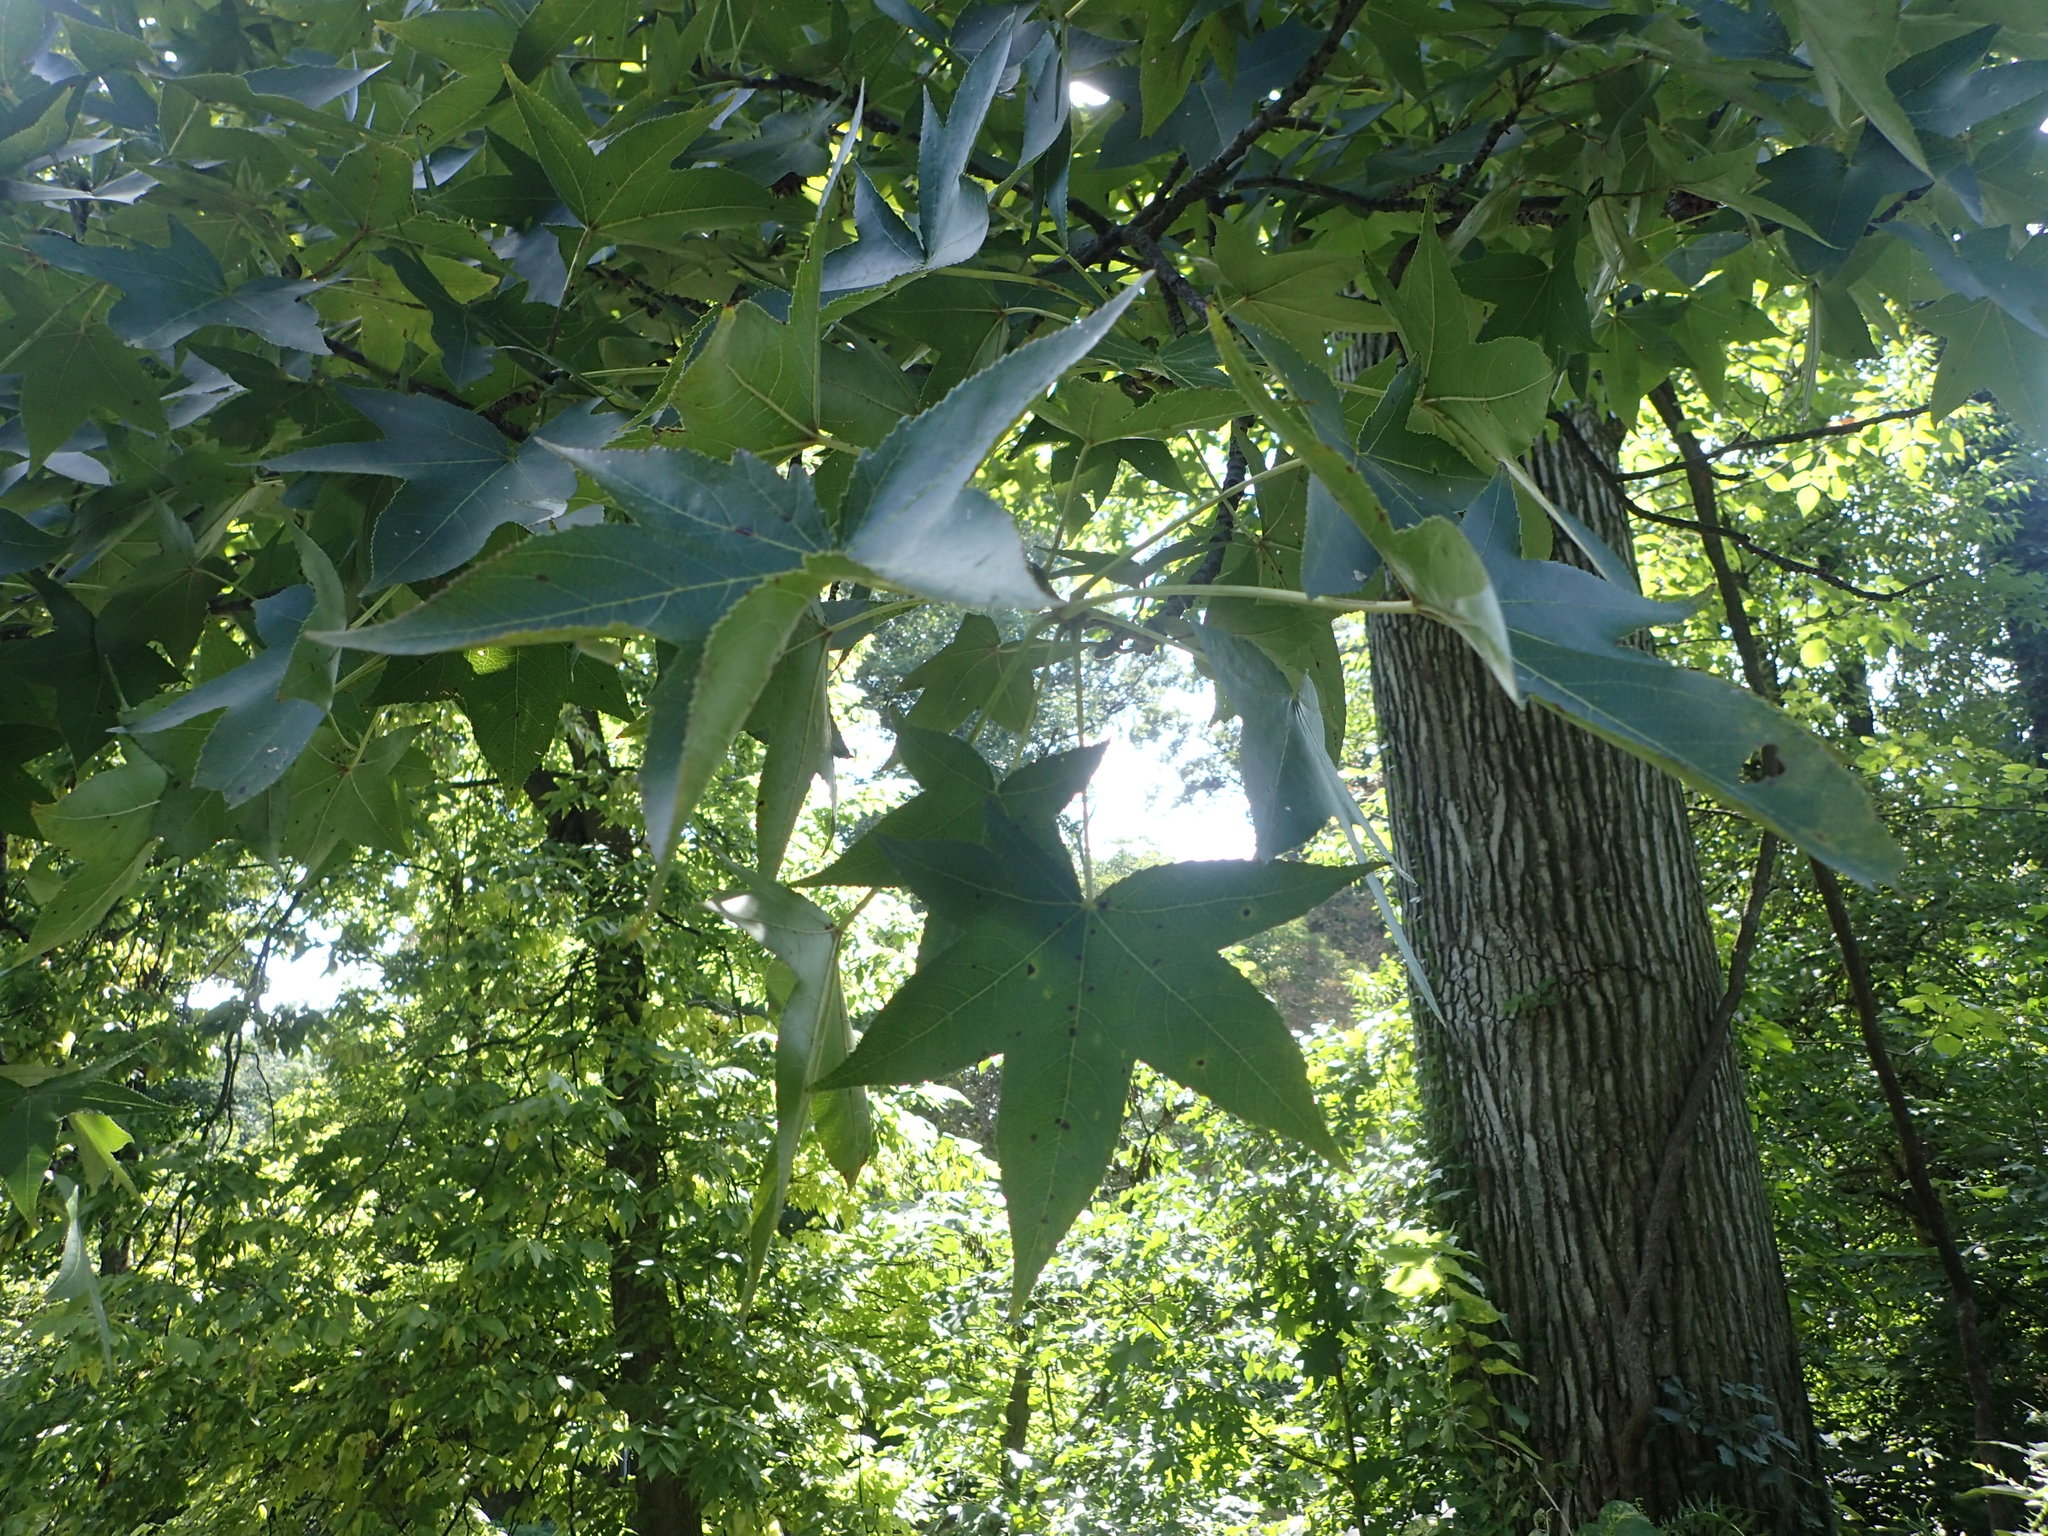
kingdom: Plantae
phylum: Tracheophyta
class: Magnoliopsida
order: Saxifragales
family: Altingiaceae
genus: Liquidambar
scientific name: Liquidambar styraciflua
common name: Sweet gum
